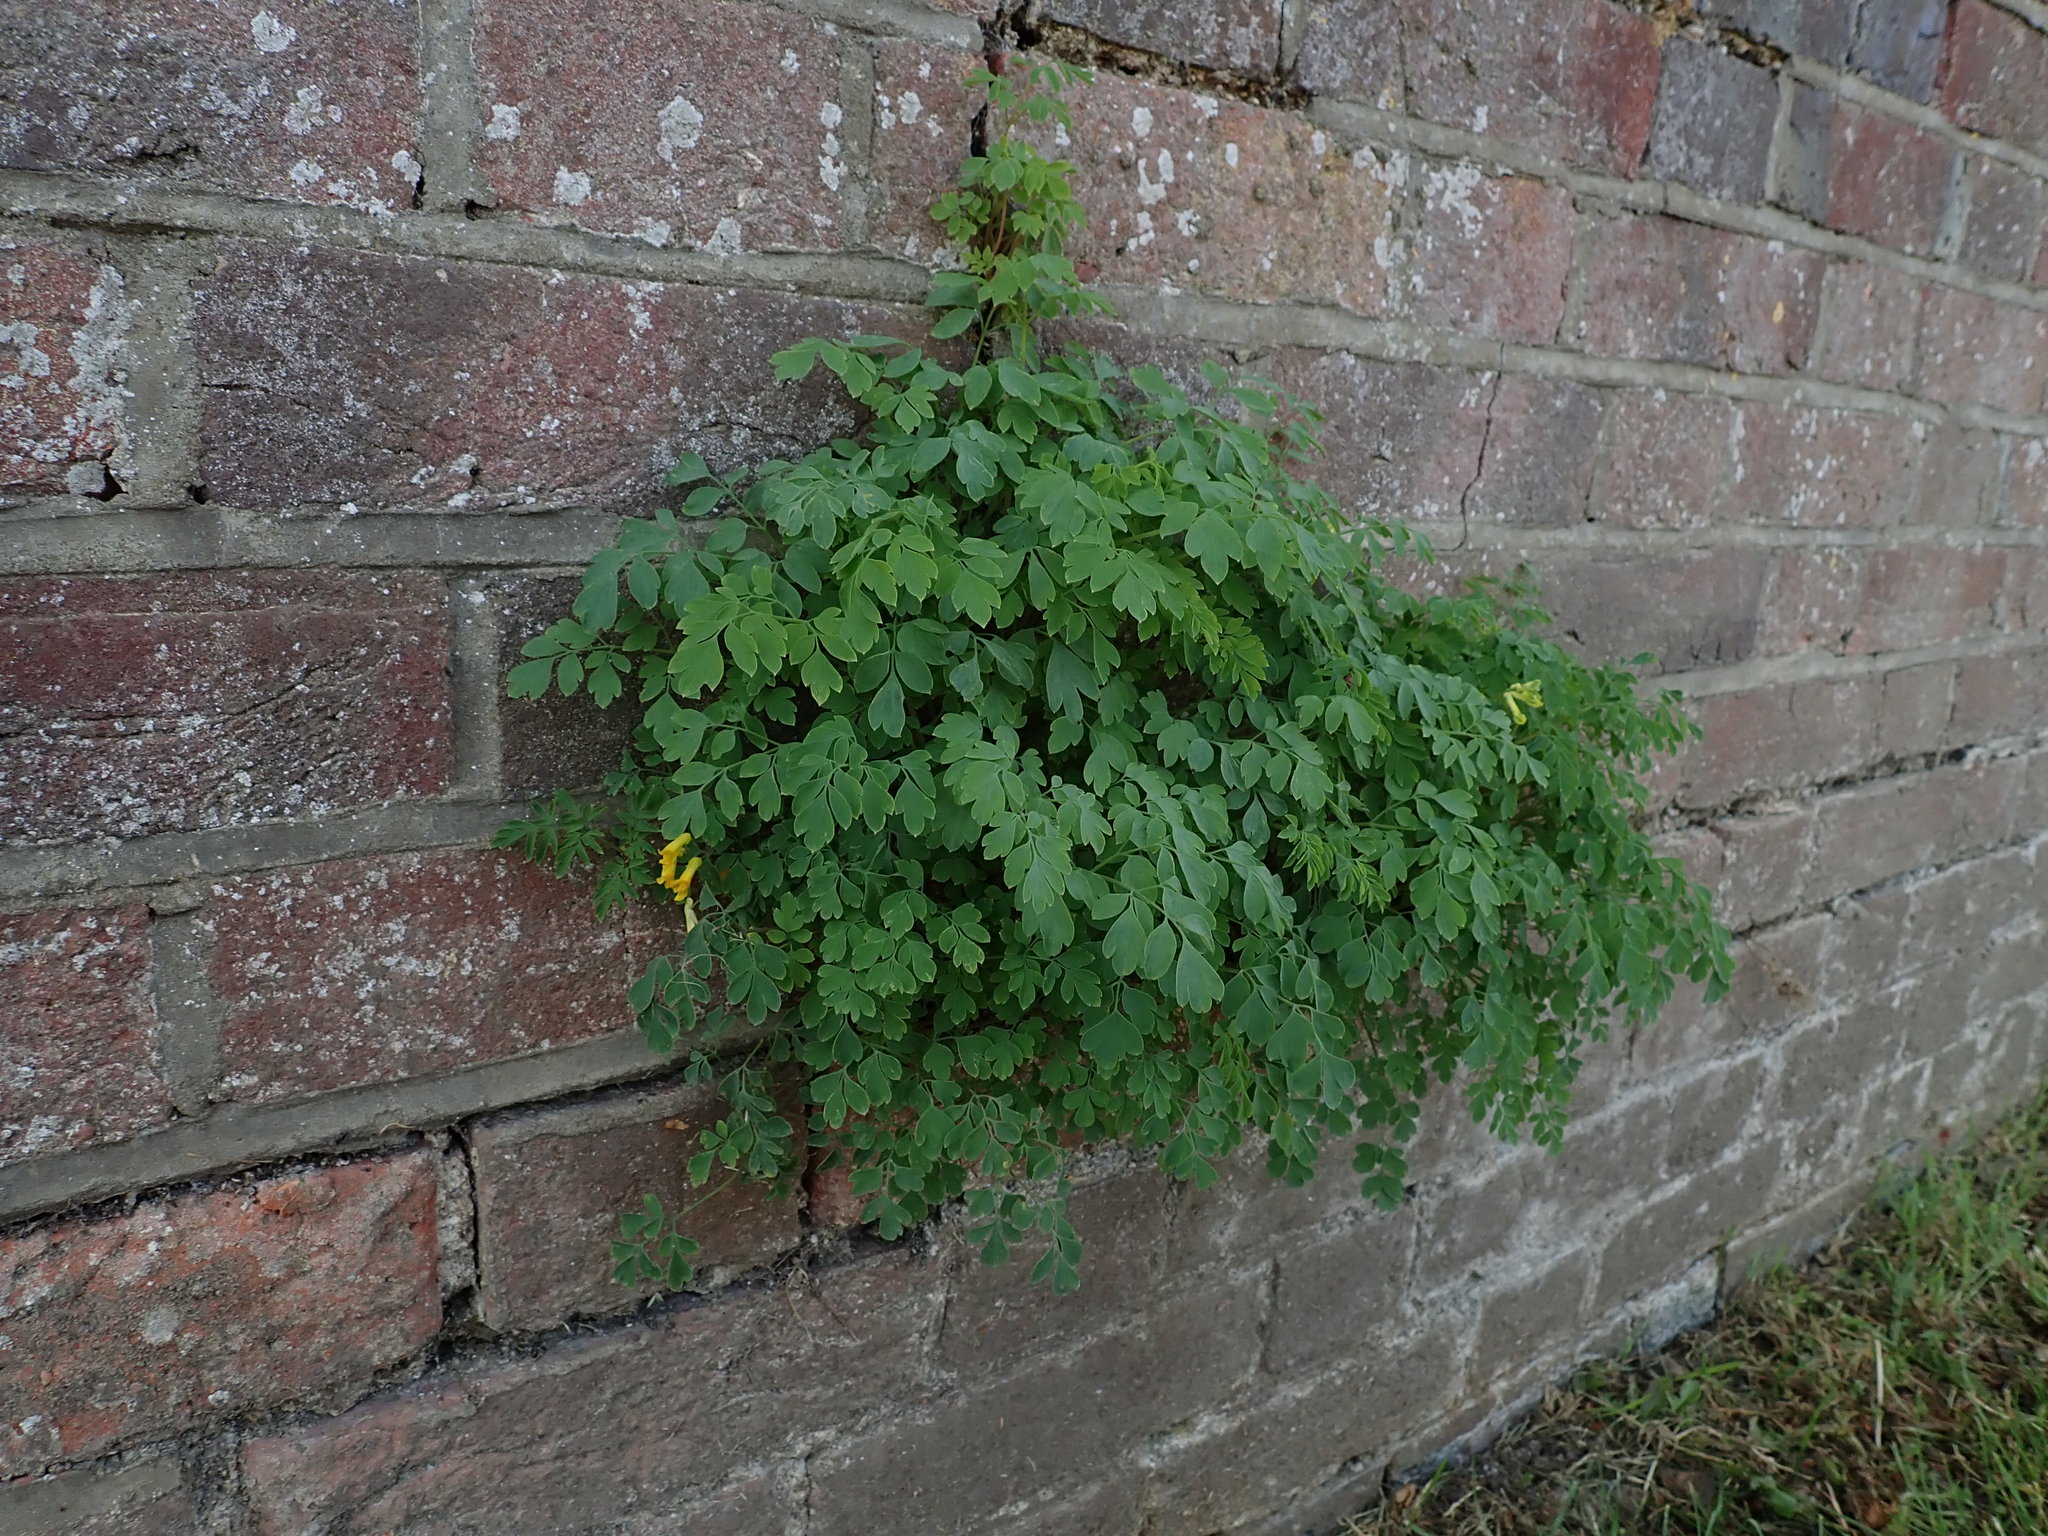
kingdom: Plantae
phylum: Tracheophyta
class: Magnoliopsida
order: Ranunculales
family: Papaveraceae
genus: Pseudofumaria
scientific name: Pseudofumaria lutea
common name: Yellow corydalis
